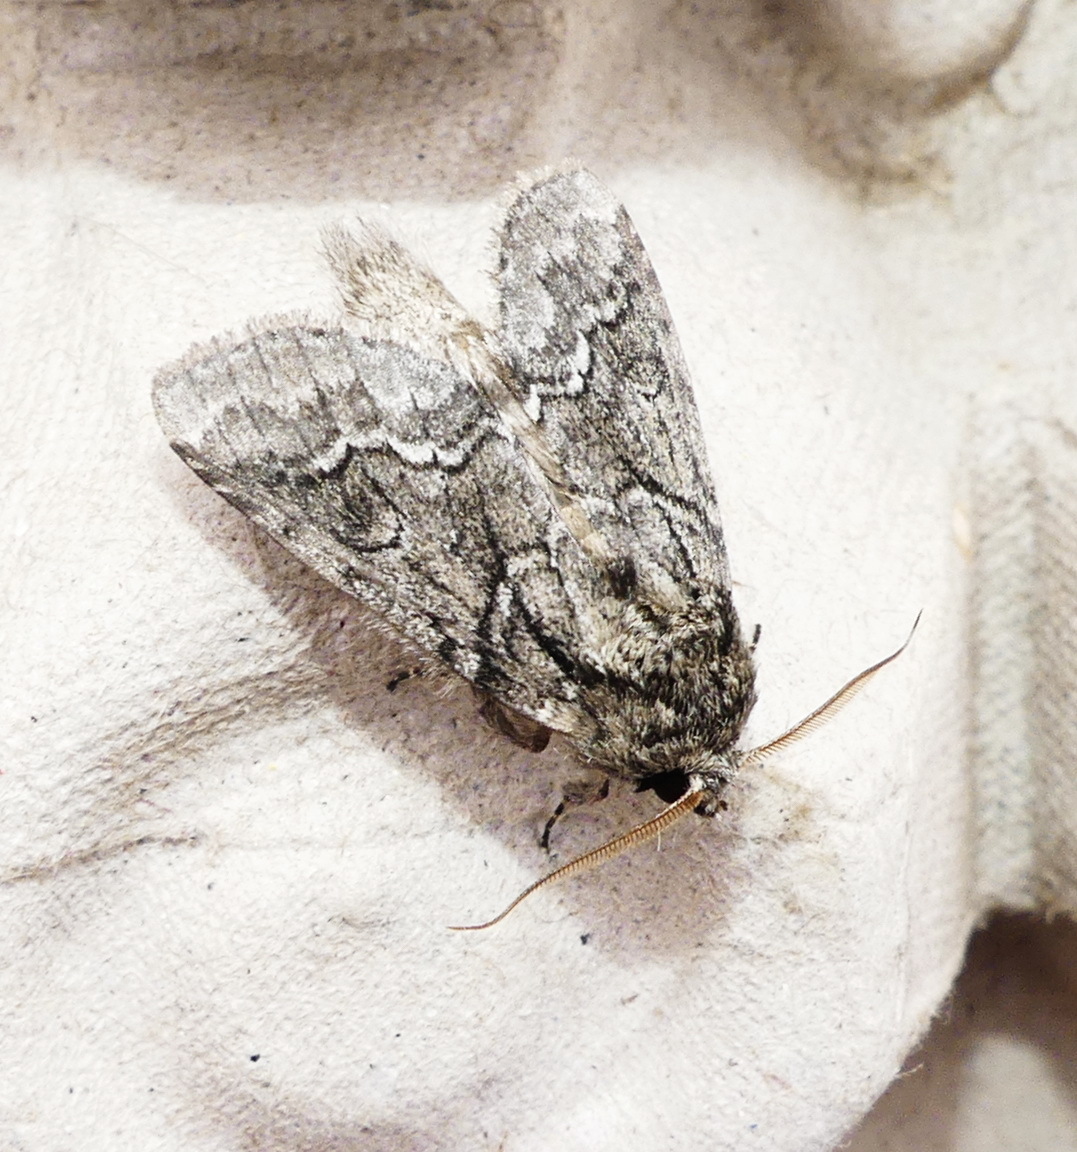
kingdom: Animalia
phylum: Arthropoda
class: Insecta
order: Lepidoptera
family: Notodontidae
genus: Lochmaeus
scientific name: Lochmaeus bilineata
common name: Double-lined prominent
